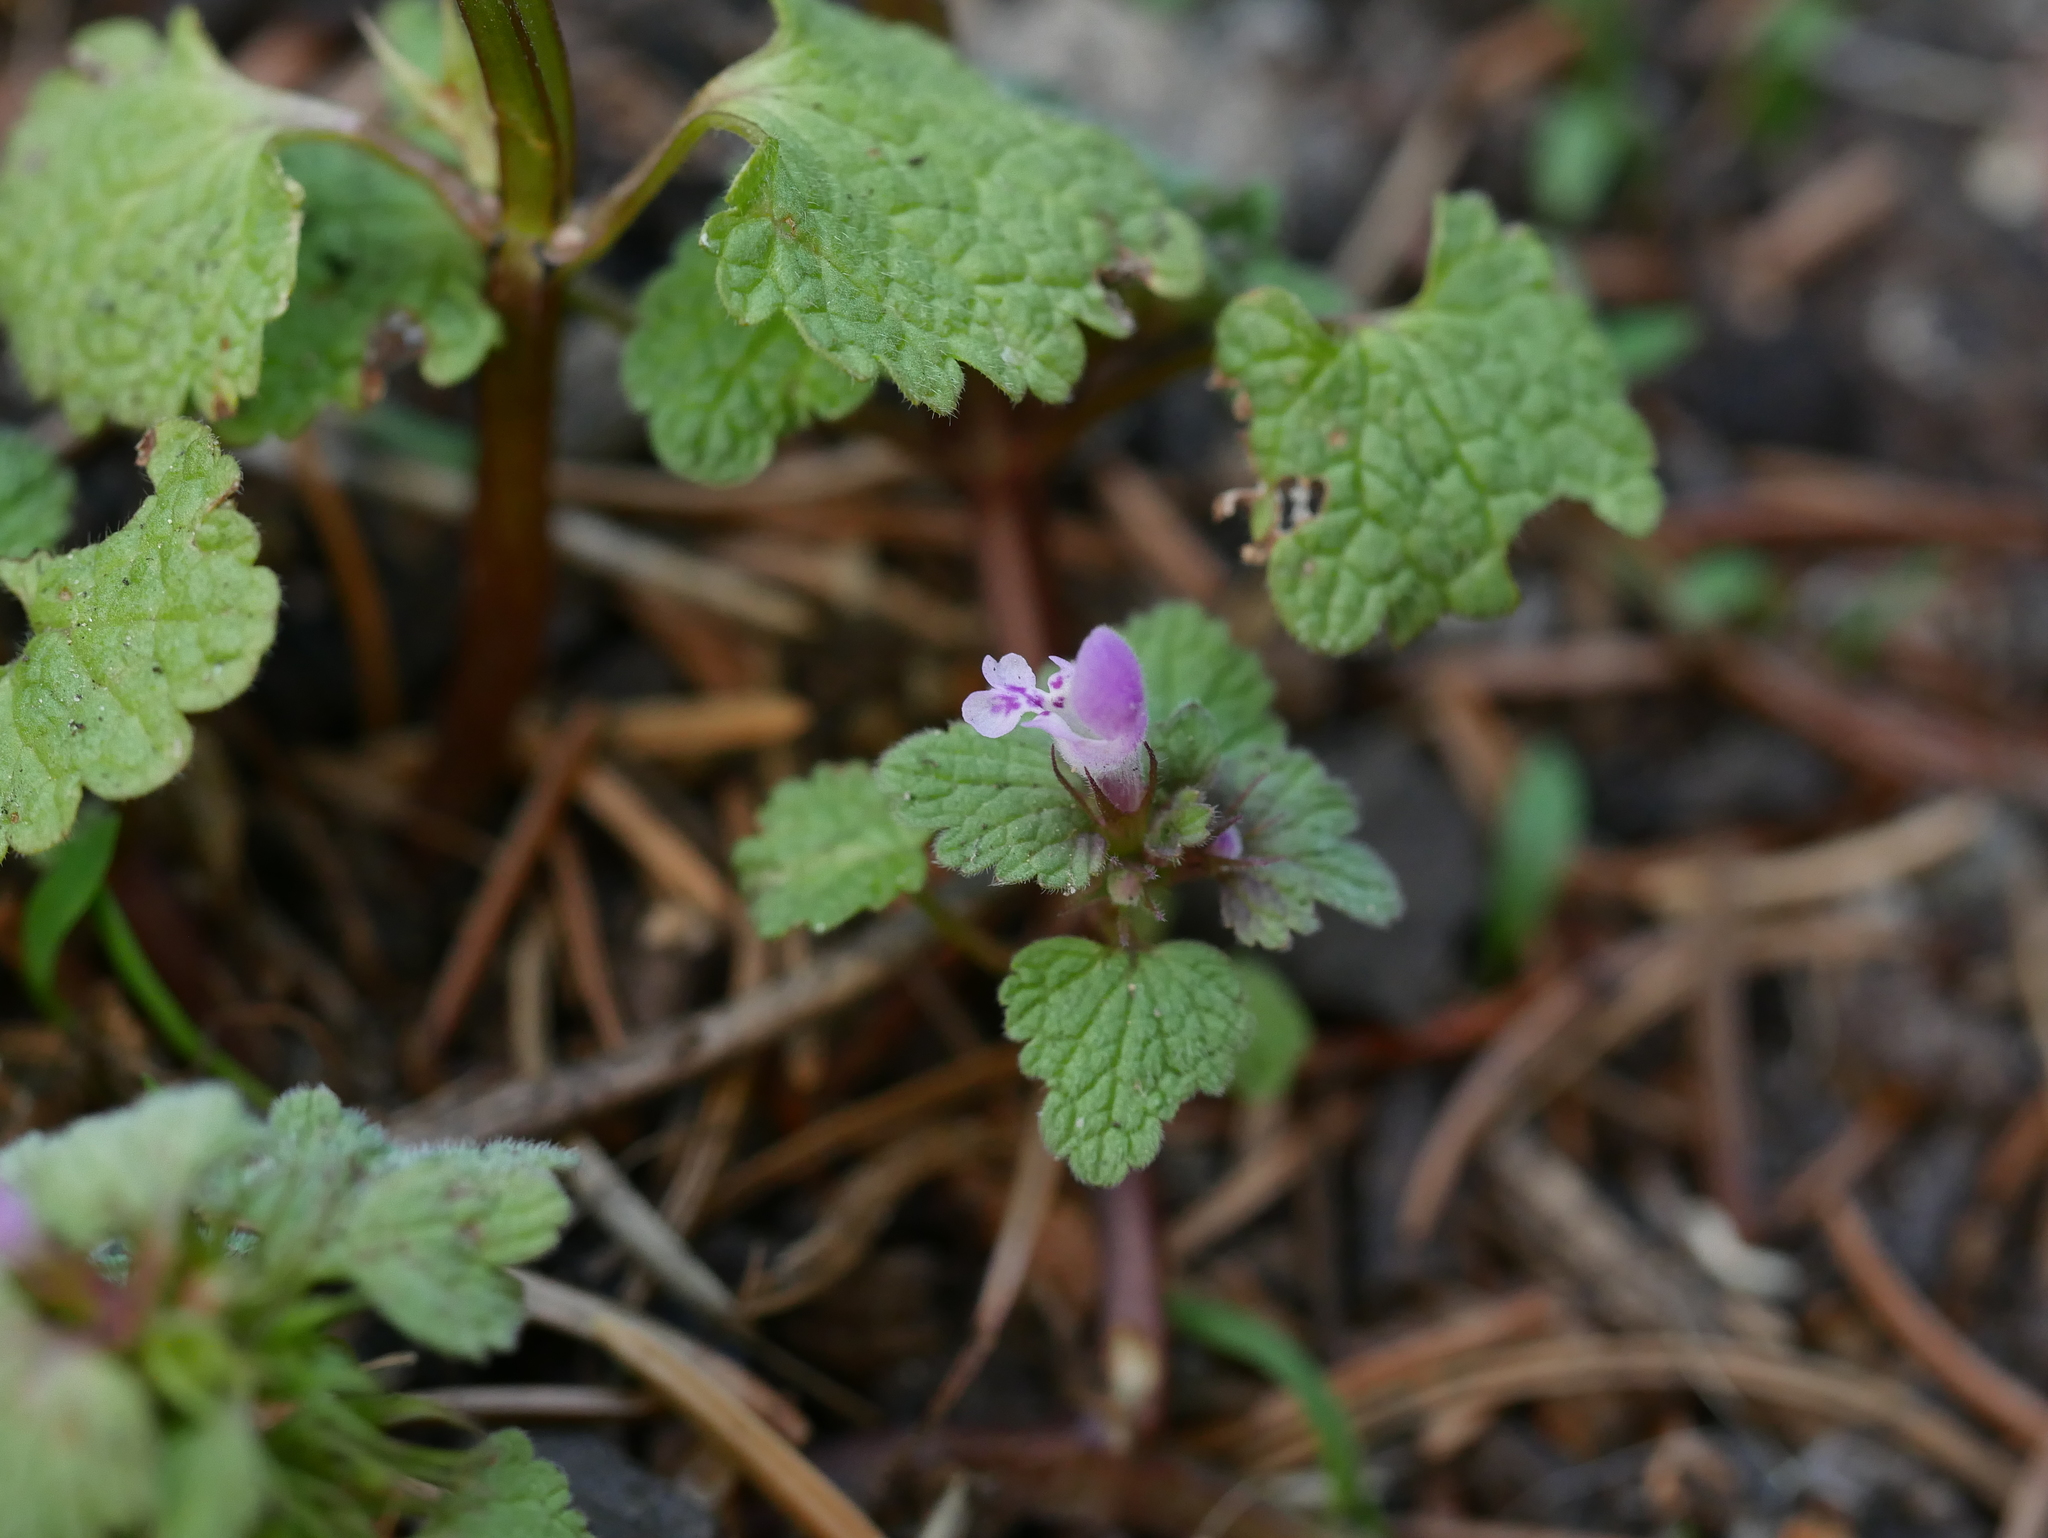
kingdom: Plantae
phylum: Tracheophyta
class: Magnoliopsida
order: Lamiales
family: Lamiaceae
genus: Lamium
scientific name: Lamium purpureum
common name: Red dead-nettle
